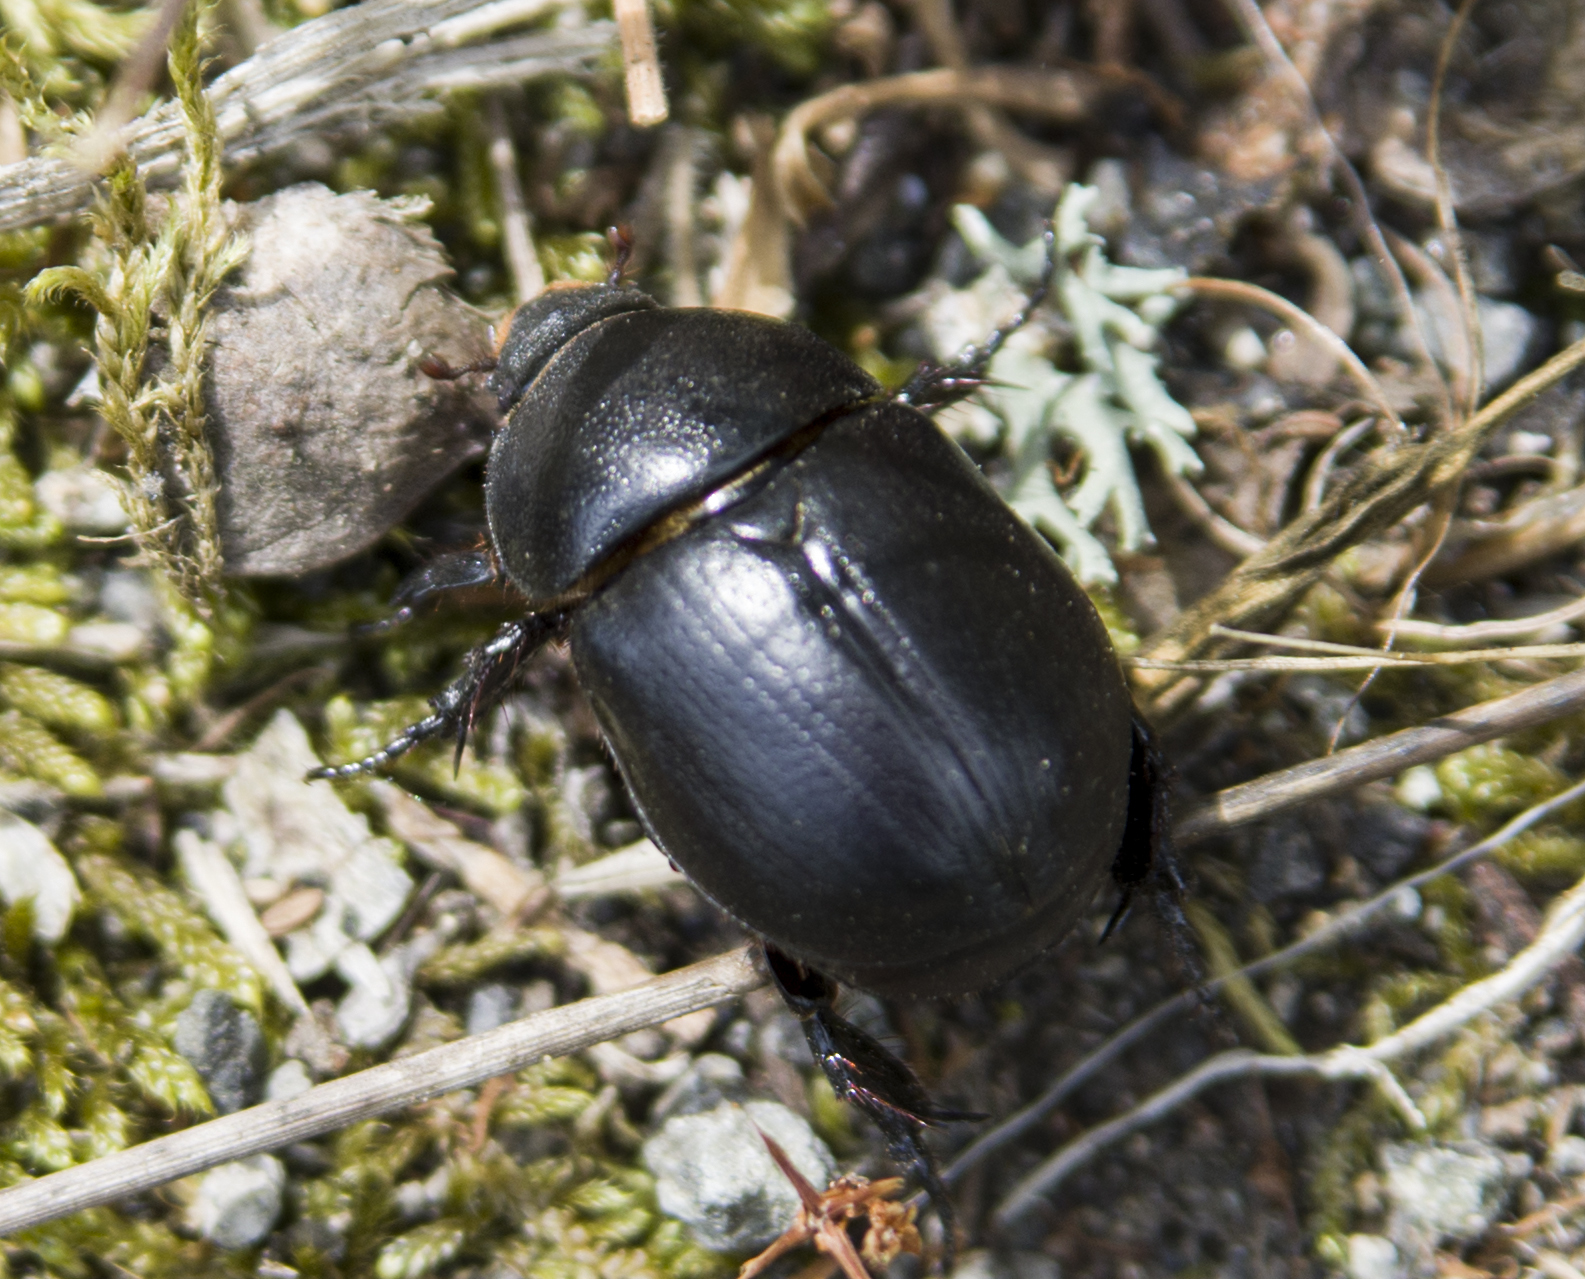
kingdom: Animalia
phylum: Arthropoda
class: Insecta
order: Coleoptera
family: Scarabaeidae
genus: Pentodon
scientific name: Pentodon idiota
